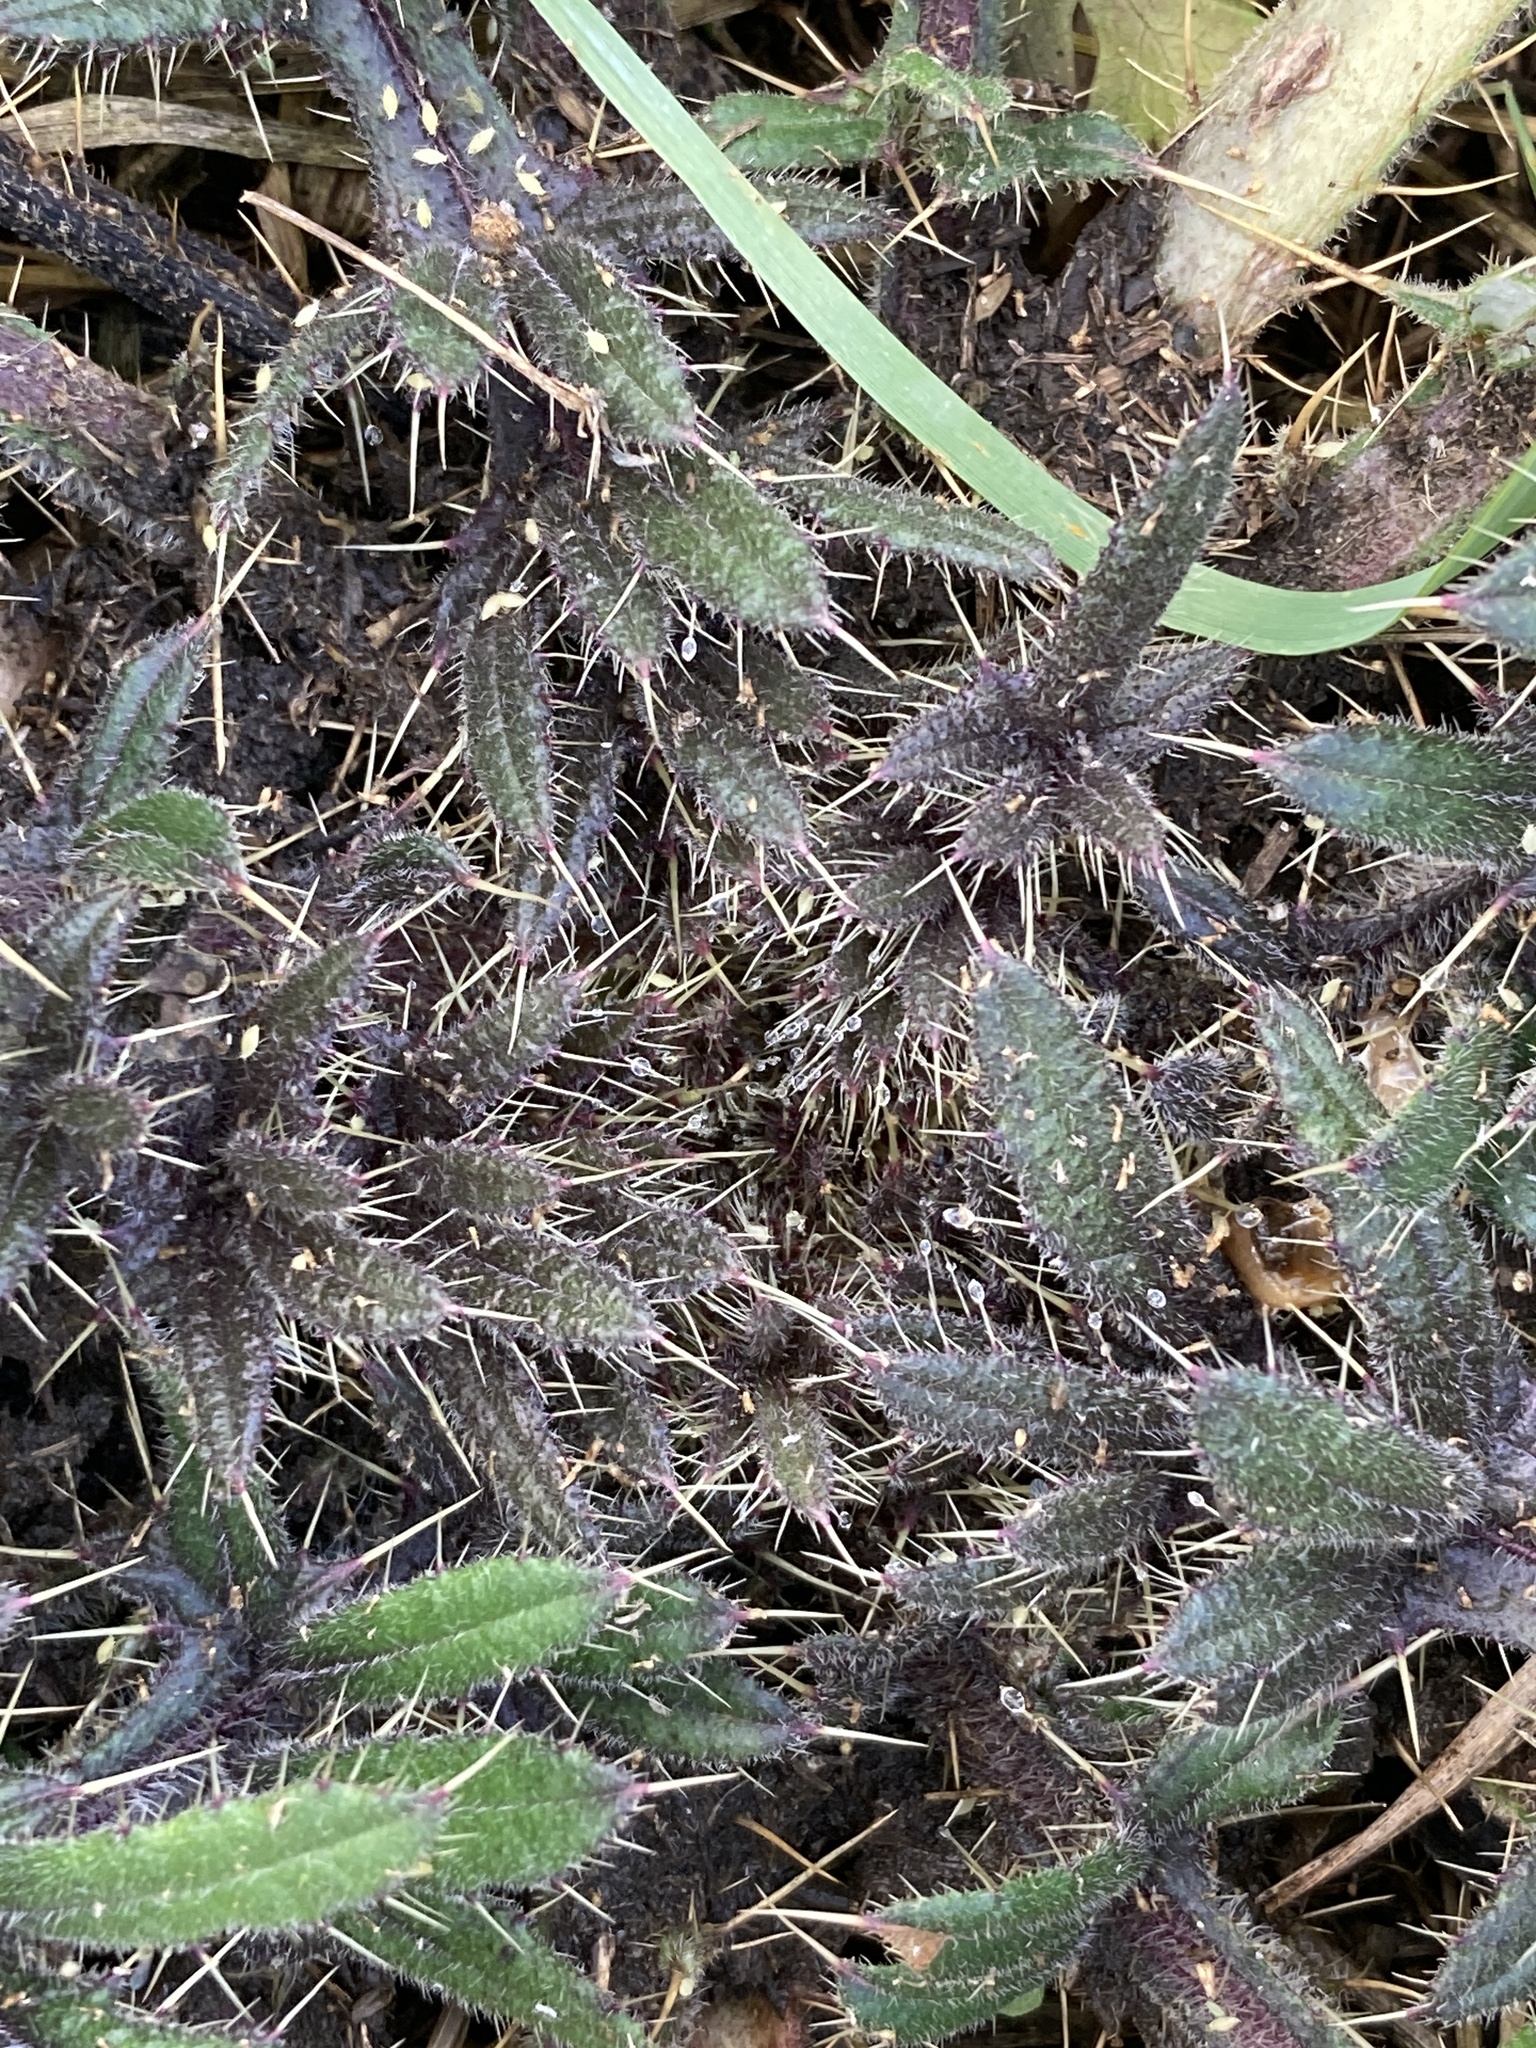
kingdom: Plantae
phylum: Tracheophyta
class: Magnoliopsida
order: Asterales
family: Asteraceae
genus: Cirsium
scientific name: Cirsium serrulatum
